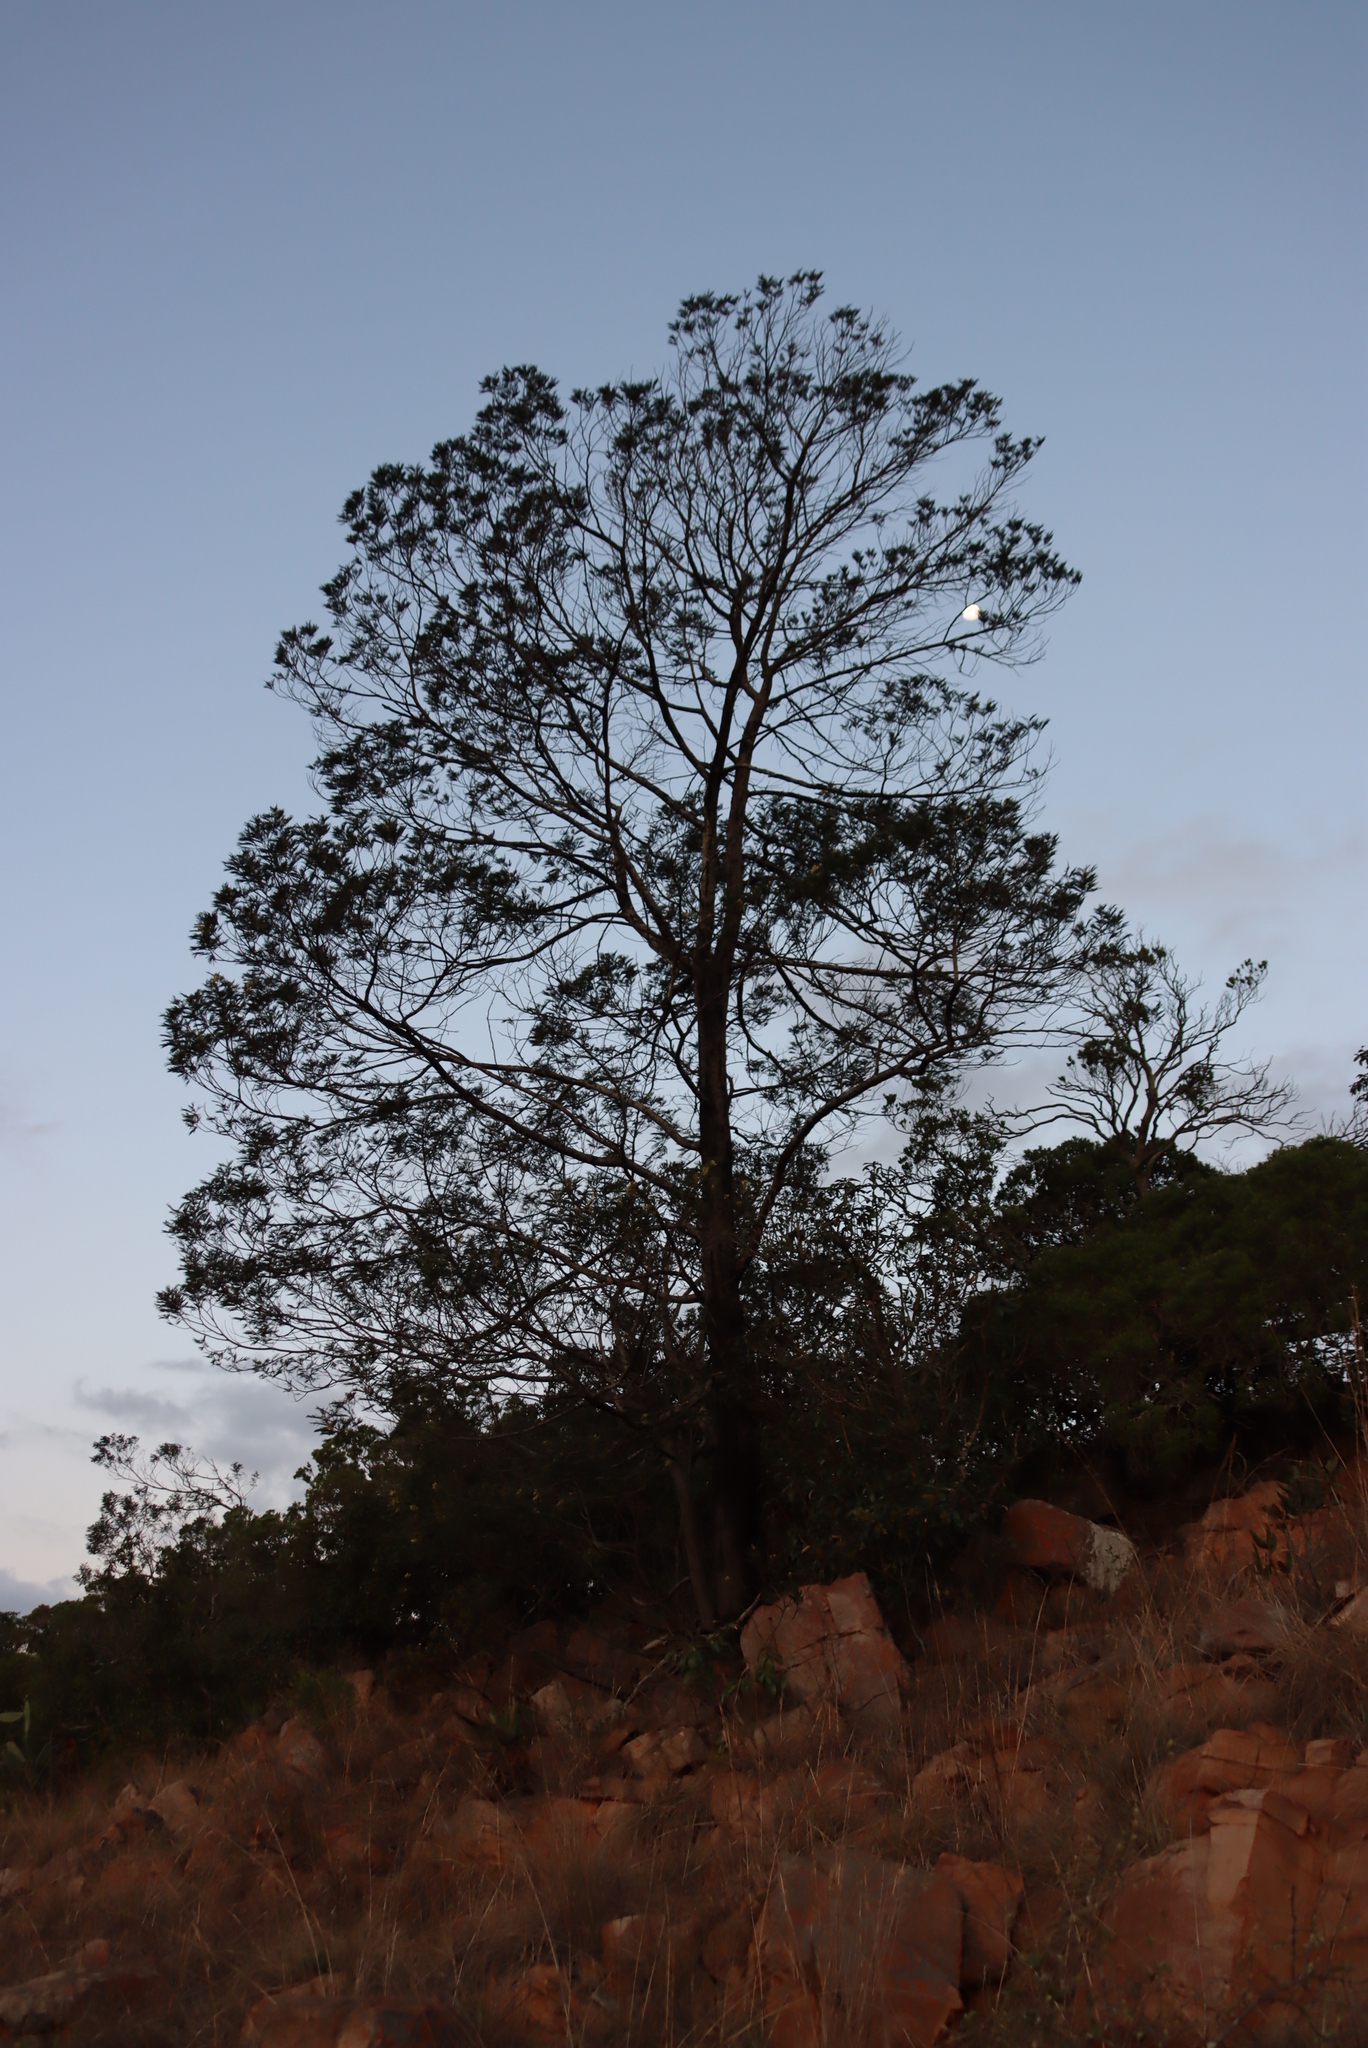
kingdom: Plantae
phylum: Tracheophyta
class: Magnoliopsida
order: Fabales
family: Fabaceae
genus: Acacia
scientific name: Acacia mearnsii
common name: Black wattle
